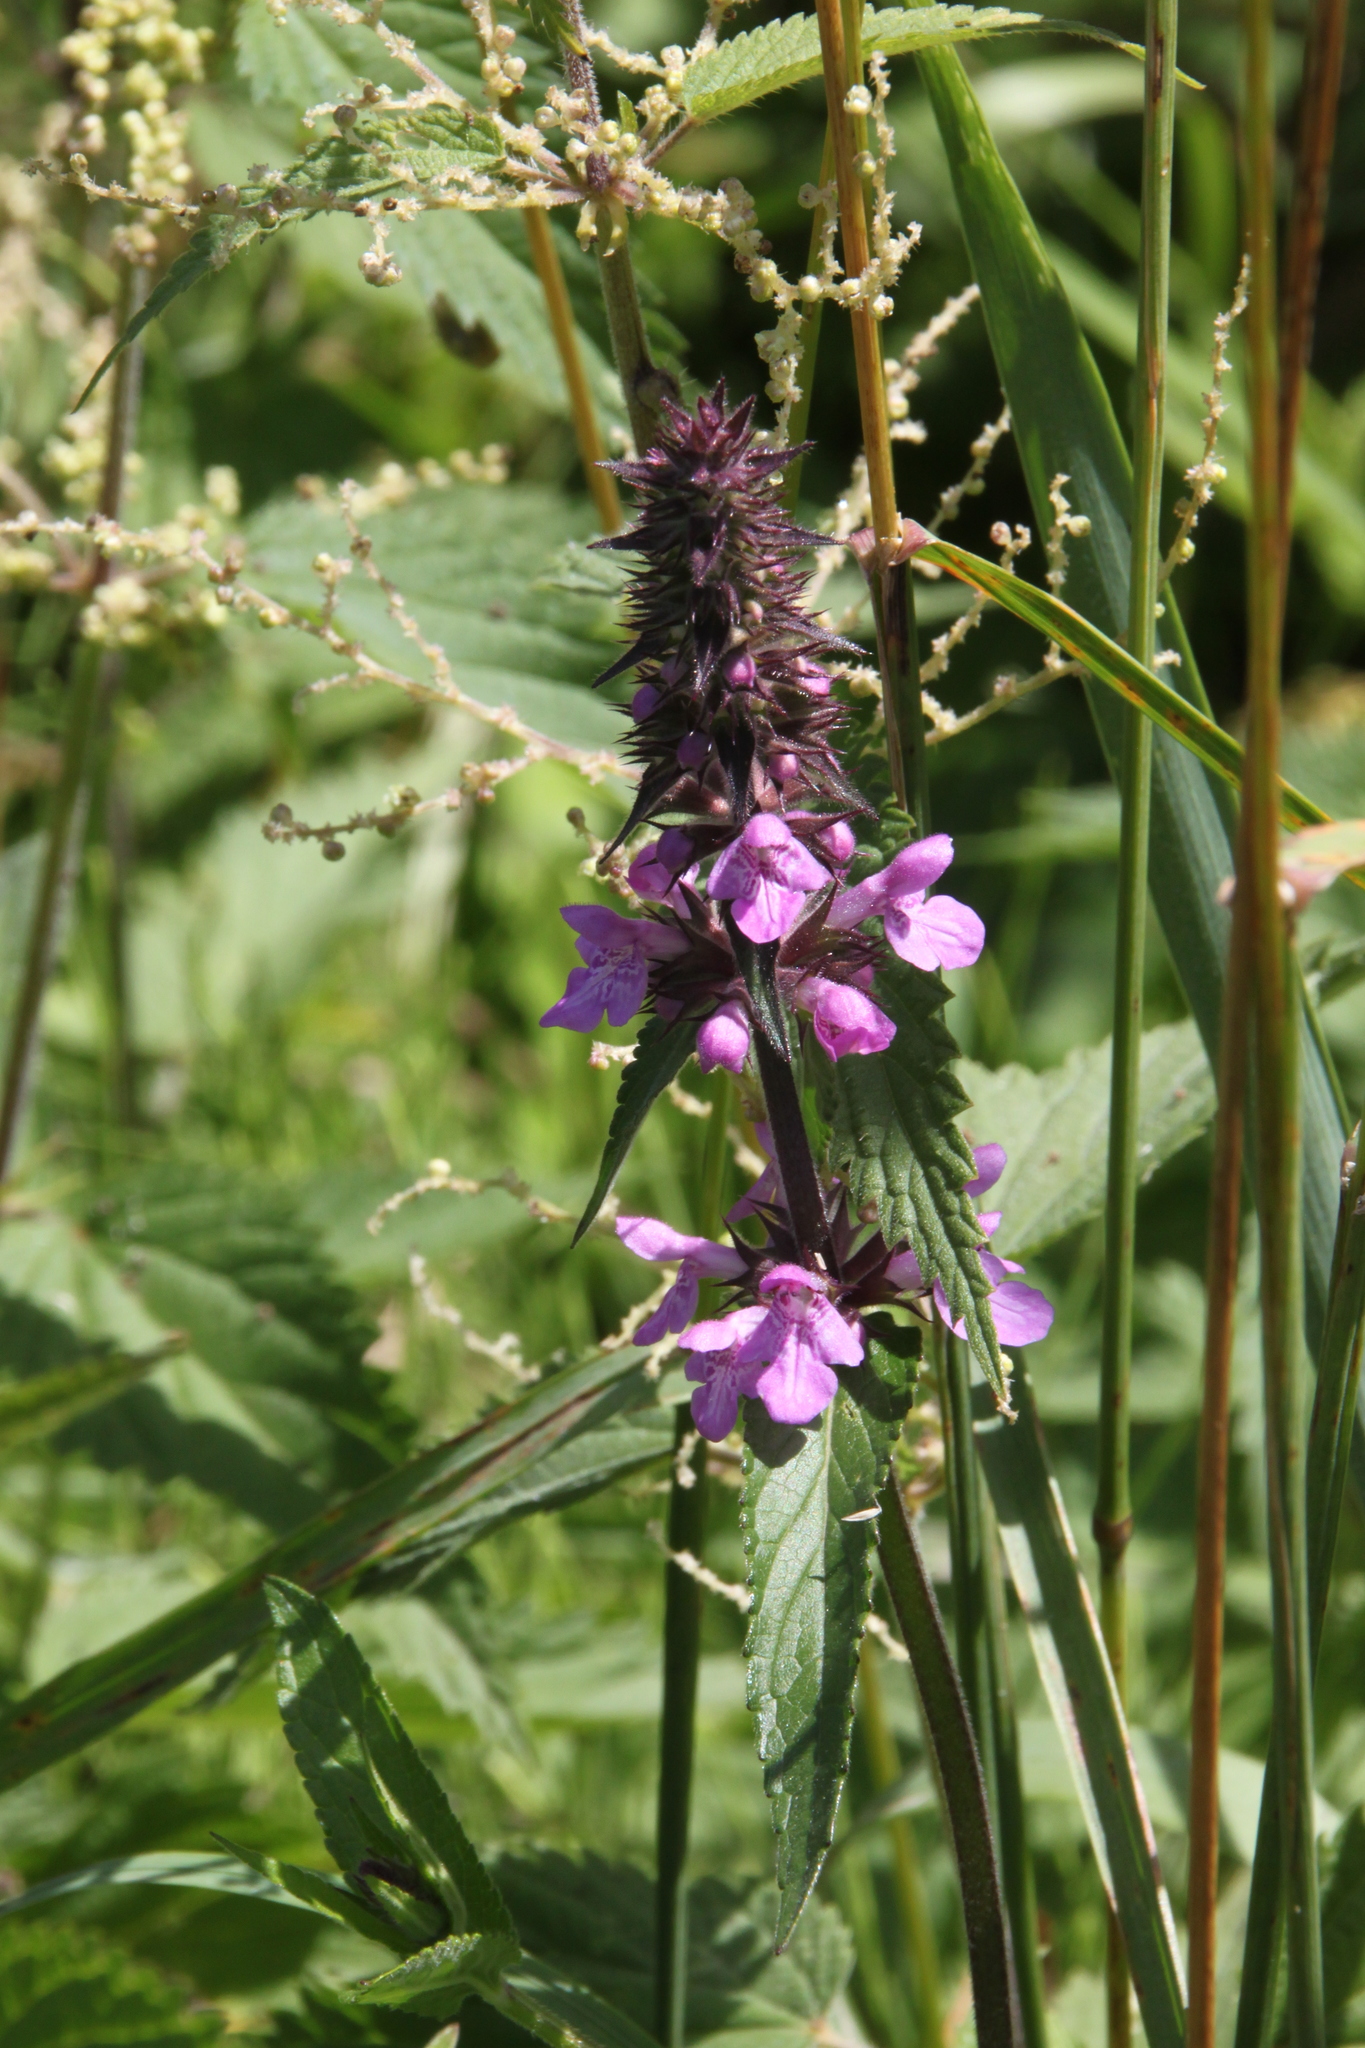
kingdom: Plantae
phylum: Tracheophyta
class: Magnoliopsida
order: Lamiales
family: Lamiaceae
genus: Stachys
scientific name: Stachys palustris
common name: Marsh woundwort
